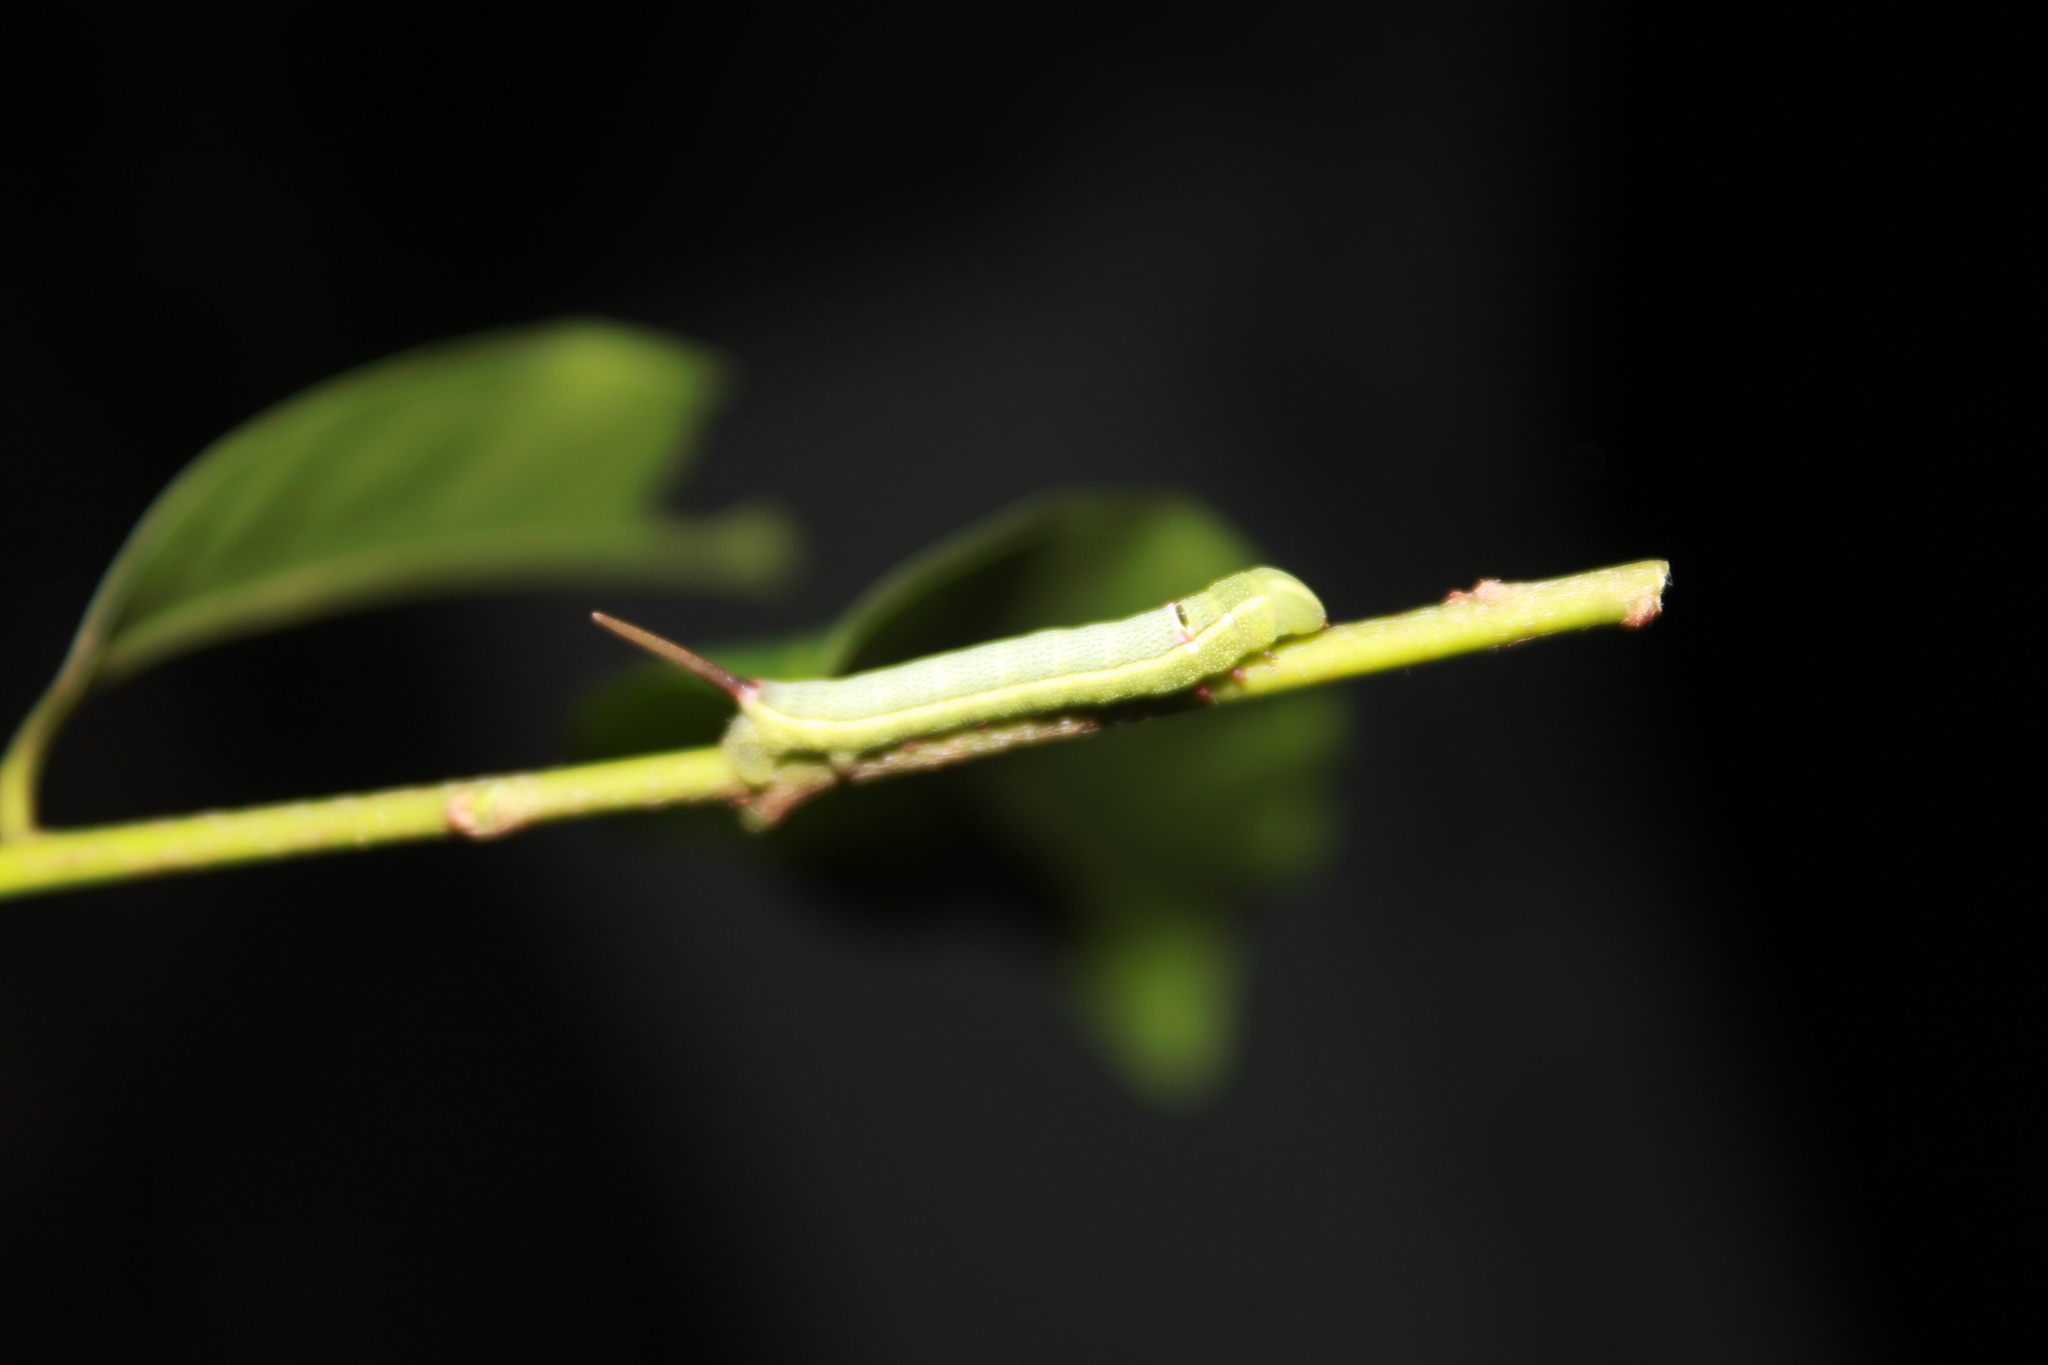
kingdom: Animalia
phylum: Arthropoda
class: Insecta
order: Lepidoptera
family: Sphingidae
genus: Erinnyis
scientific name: Erinnyis ello
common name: Ello sphinx
